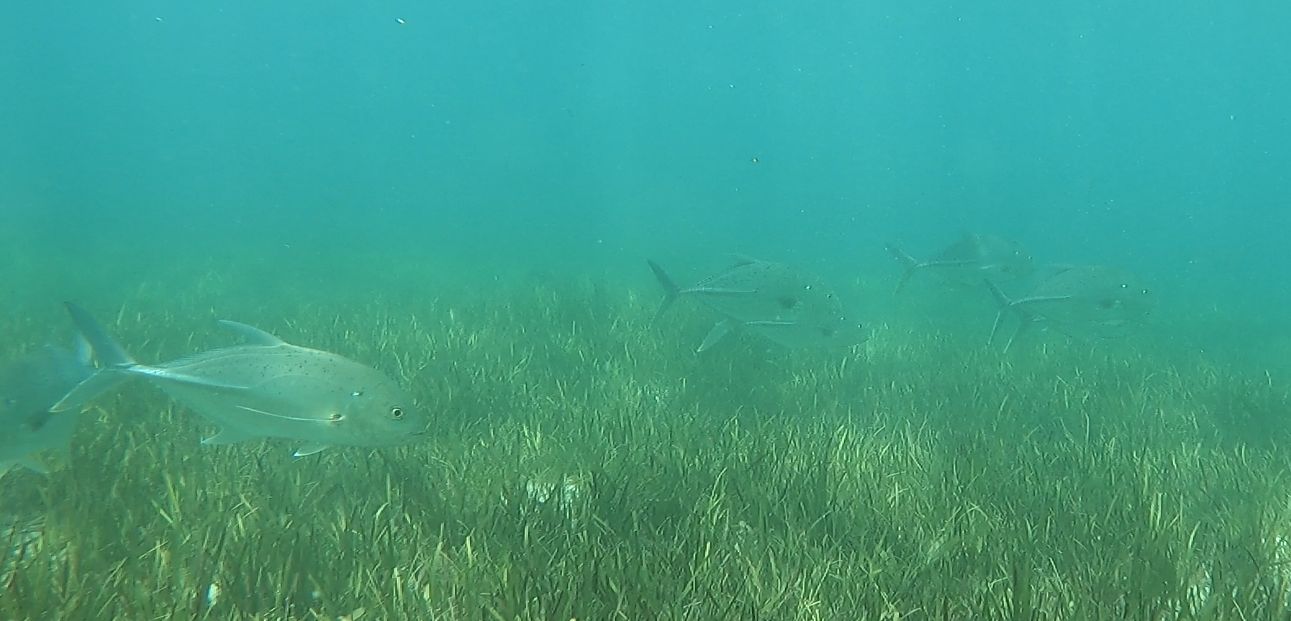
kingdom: Animalia
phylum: Chordata
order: Perciformes
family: Carangidae
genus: Caranx
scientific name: Caranx papuensis
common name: Brassy trevally
